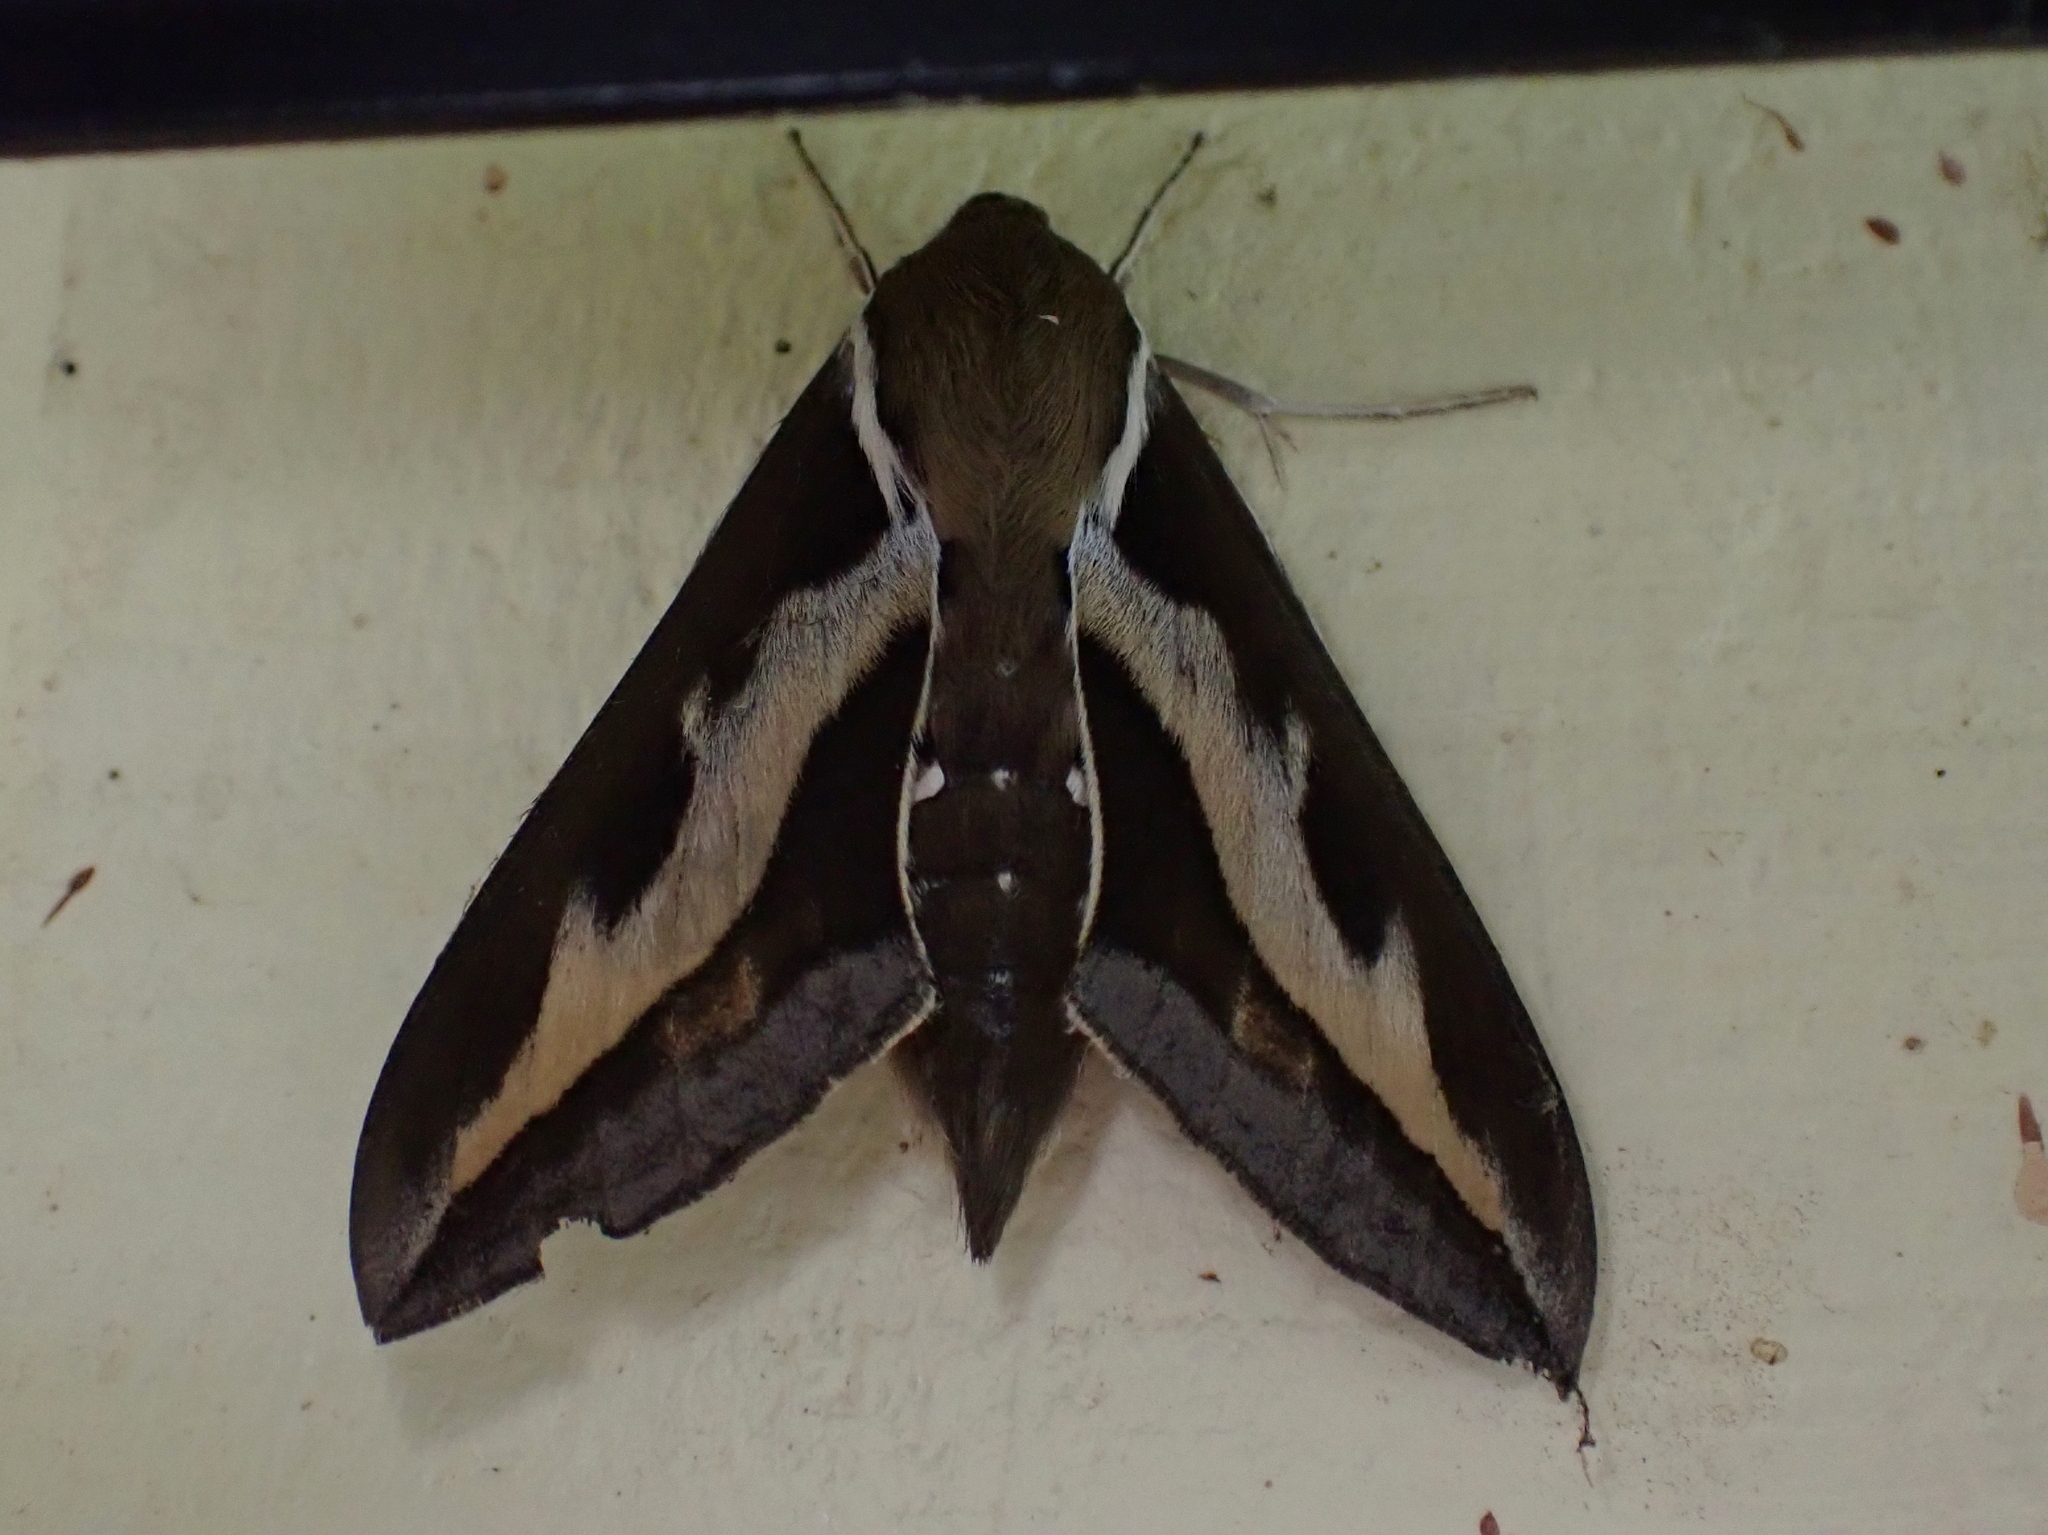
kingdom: Animalia
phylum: Arthropoda
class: Insecta
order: Lepidoptera
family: Sphingidae
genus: Hyles
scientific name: Hyles gallii
